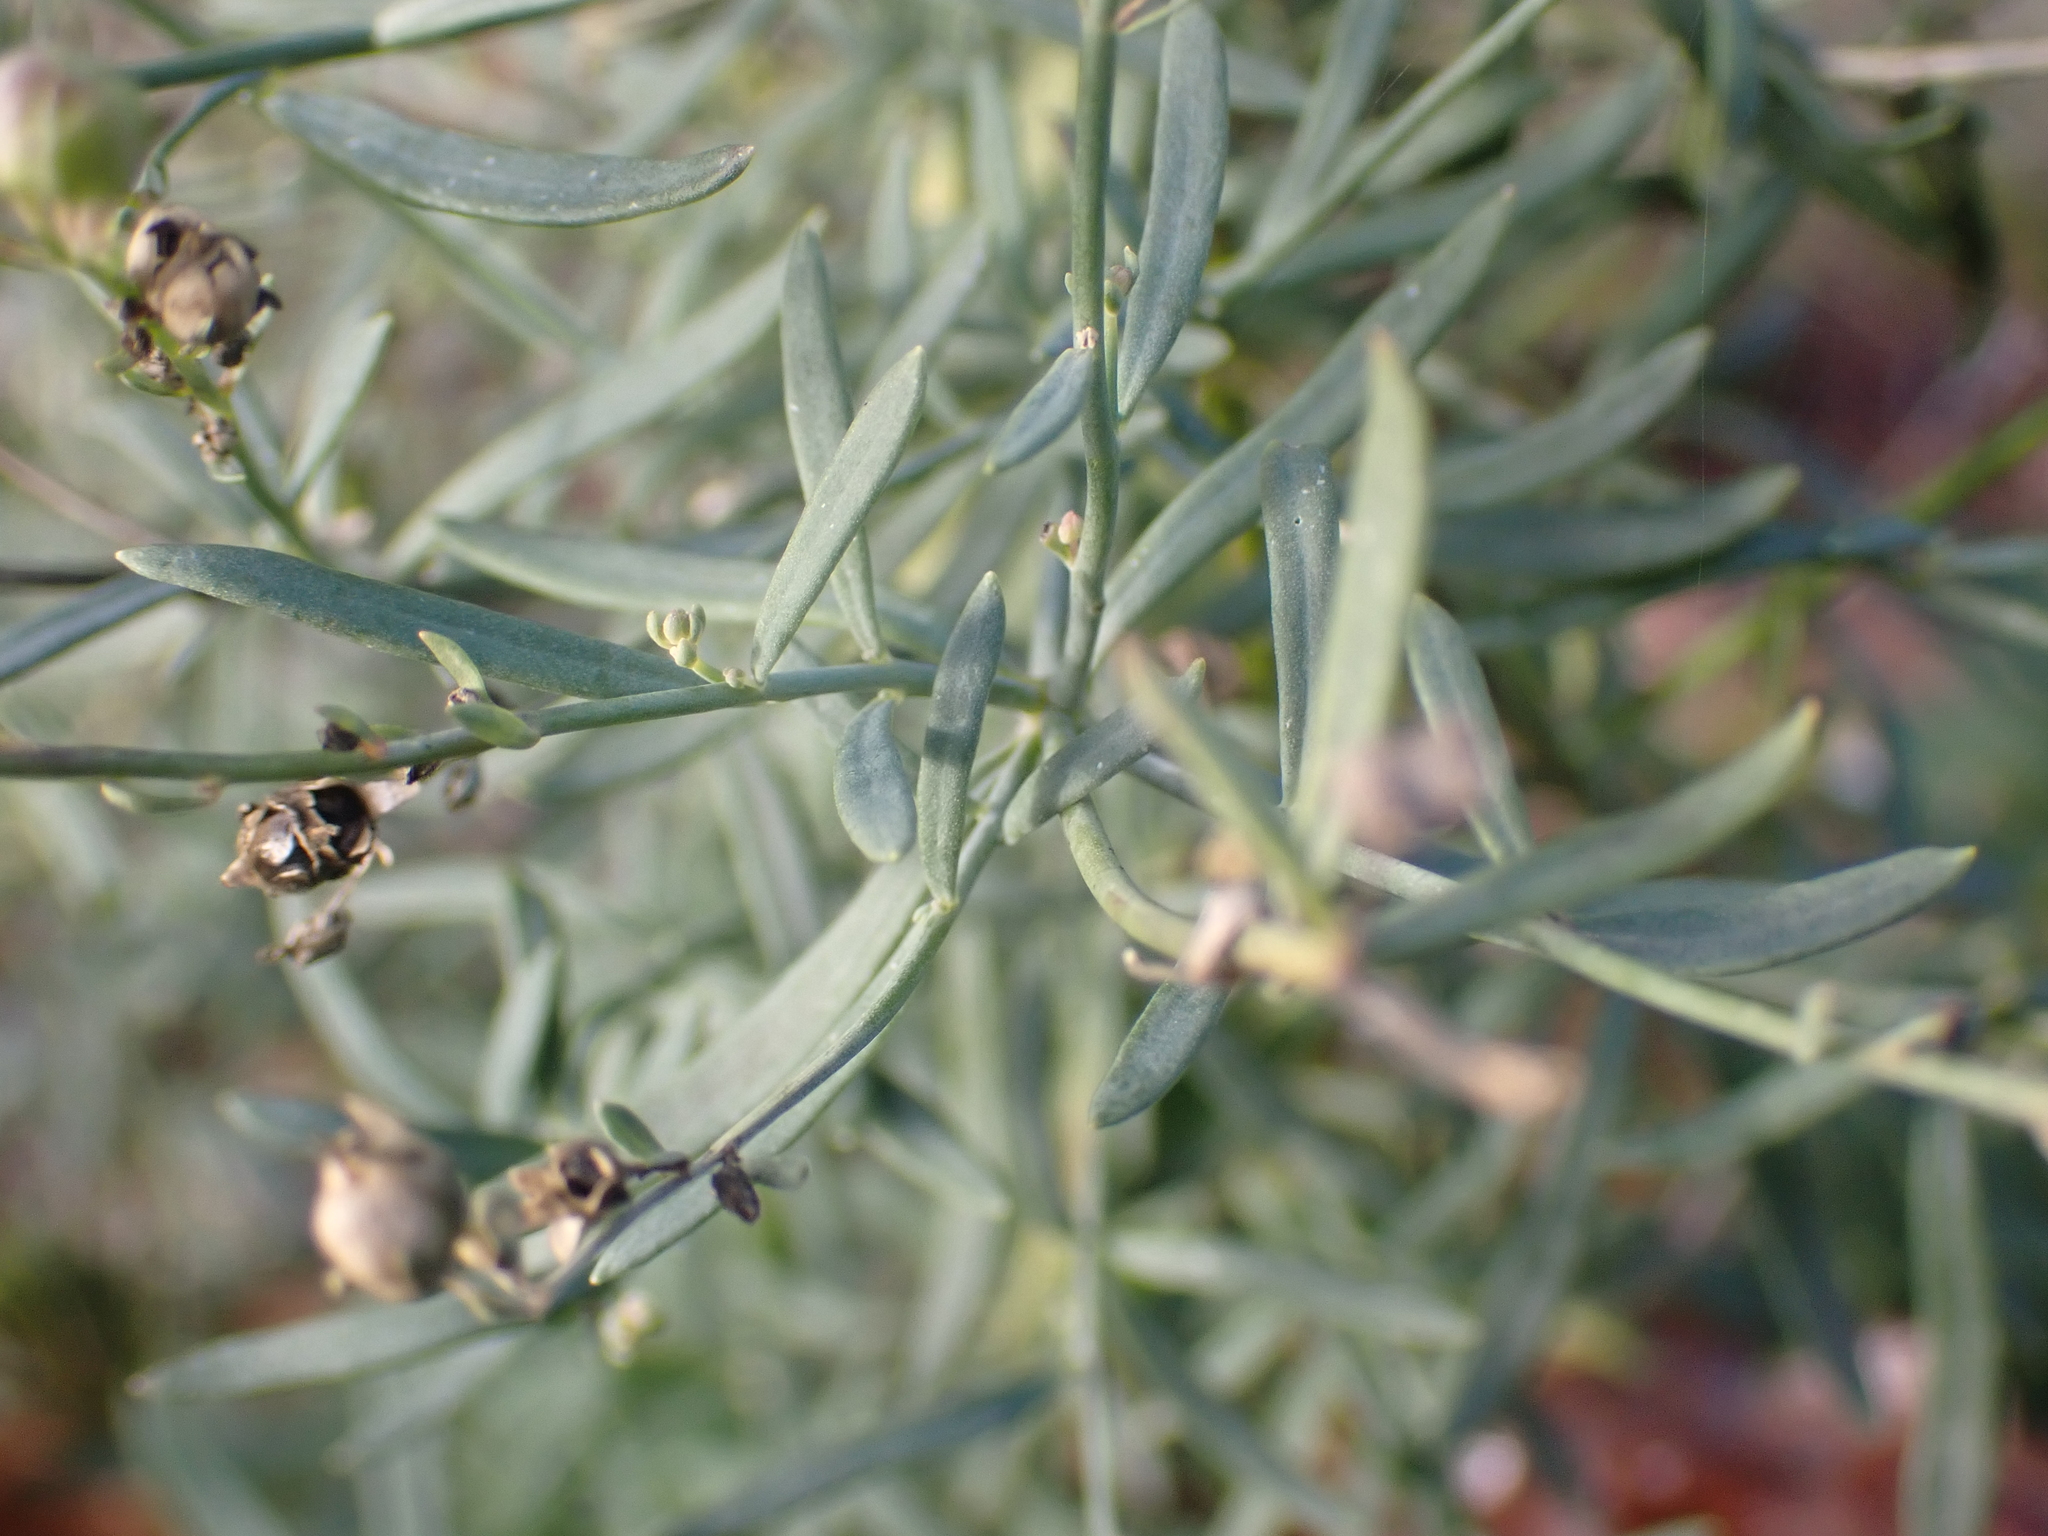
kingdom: Plantae
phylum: Tracheophyta
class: Magnoliopsida
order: Lamiales
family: Plantaginaceae
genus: Linaria
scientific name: Linaria repens
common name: Pale toadflax
